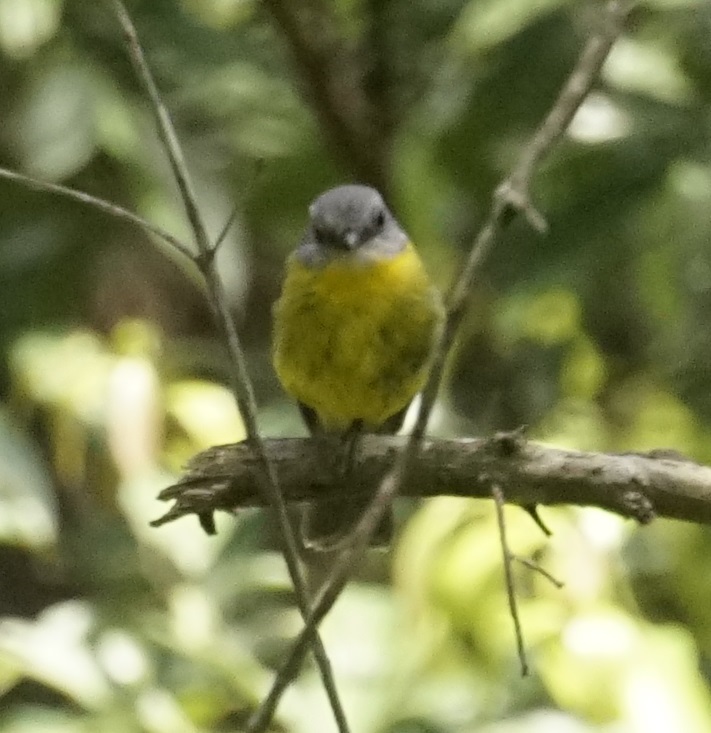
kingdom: Animalia
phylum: Chordata
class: Aves
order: Passeriformes
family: Petroicidae
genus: Eopsaltria
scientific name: Eopsaltria australis
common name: Eastern yellow robin
